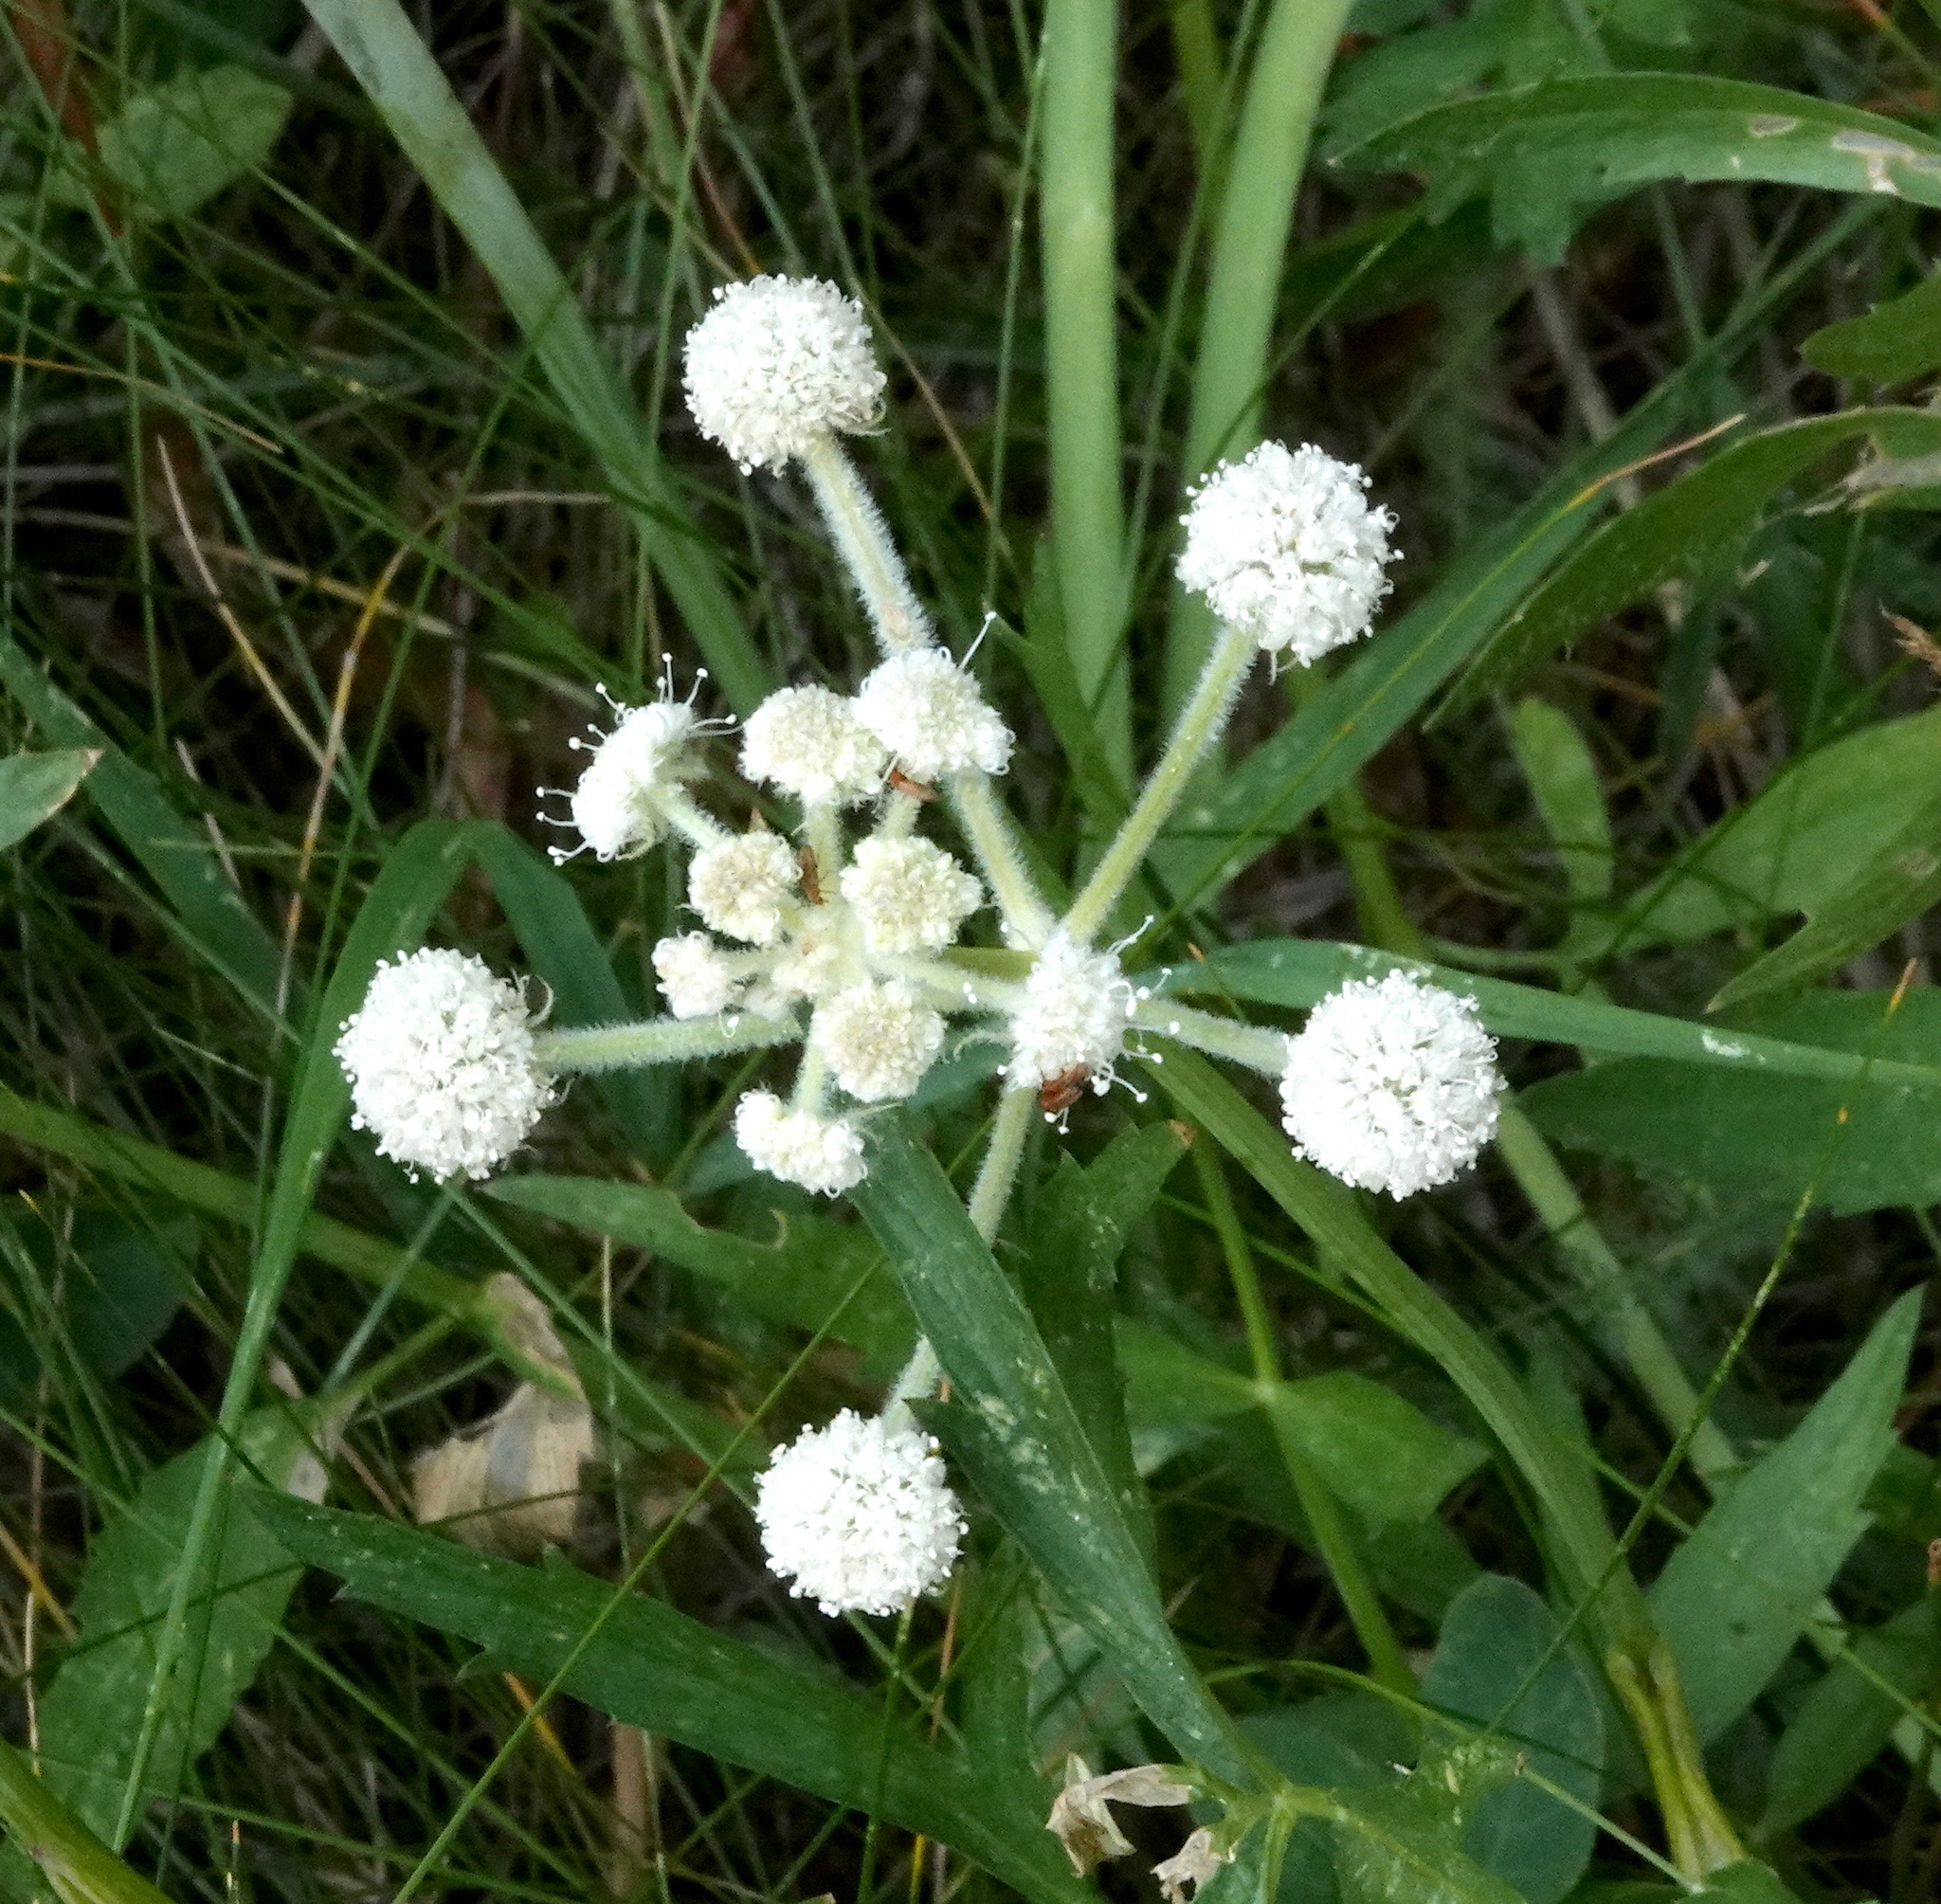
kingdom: Plantae
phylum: Tracheophyta
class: Magnoliopsida
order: Apiales
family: Apiaceae
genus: Angelica
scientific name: Angelica capitellata
